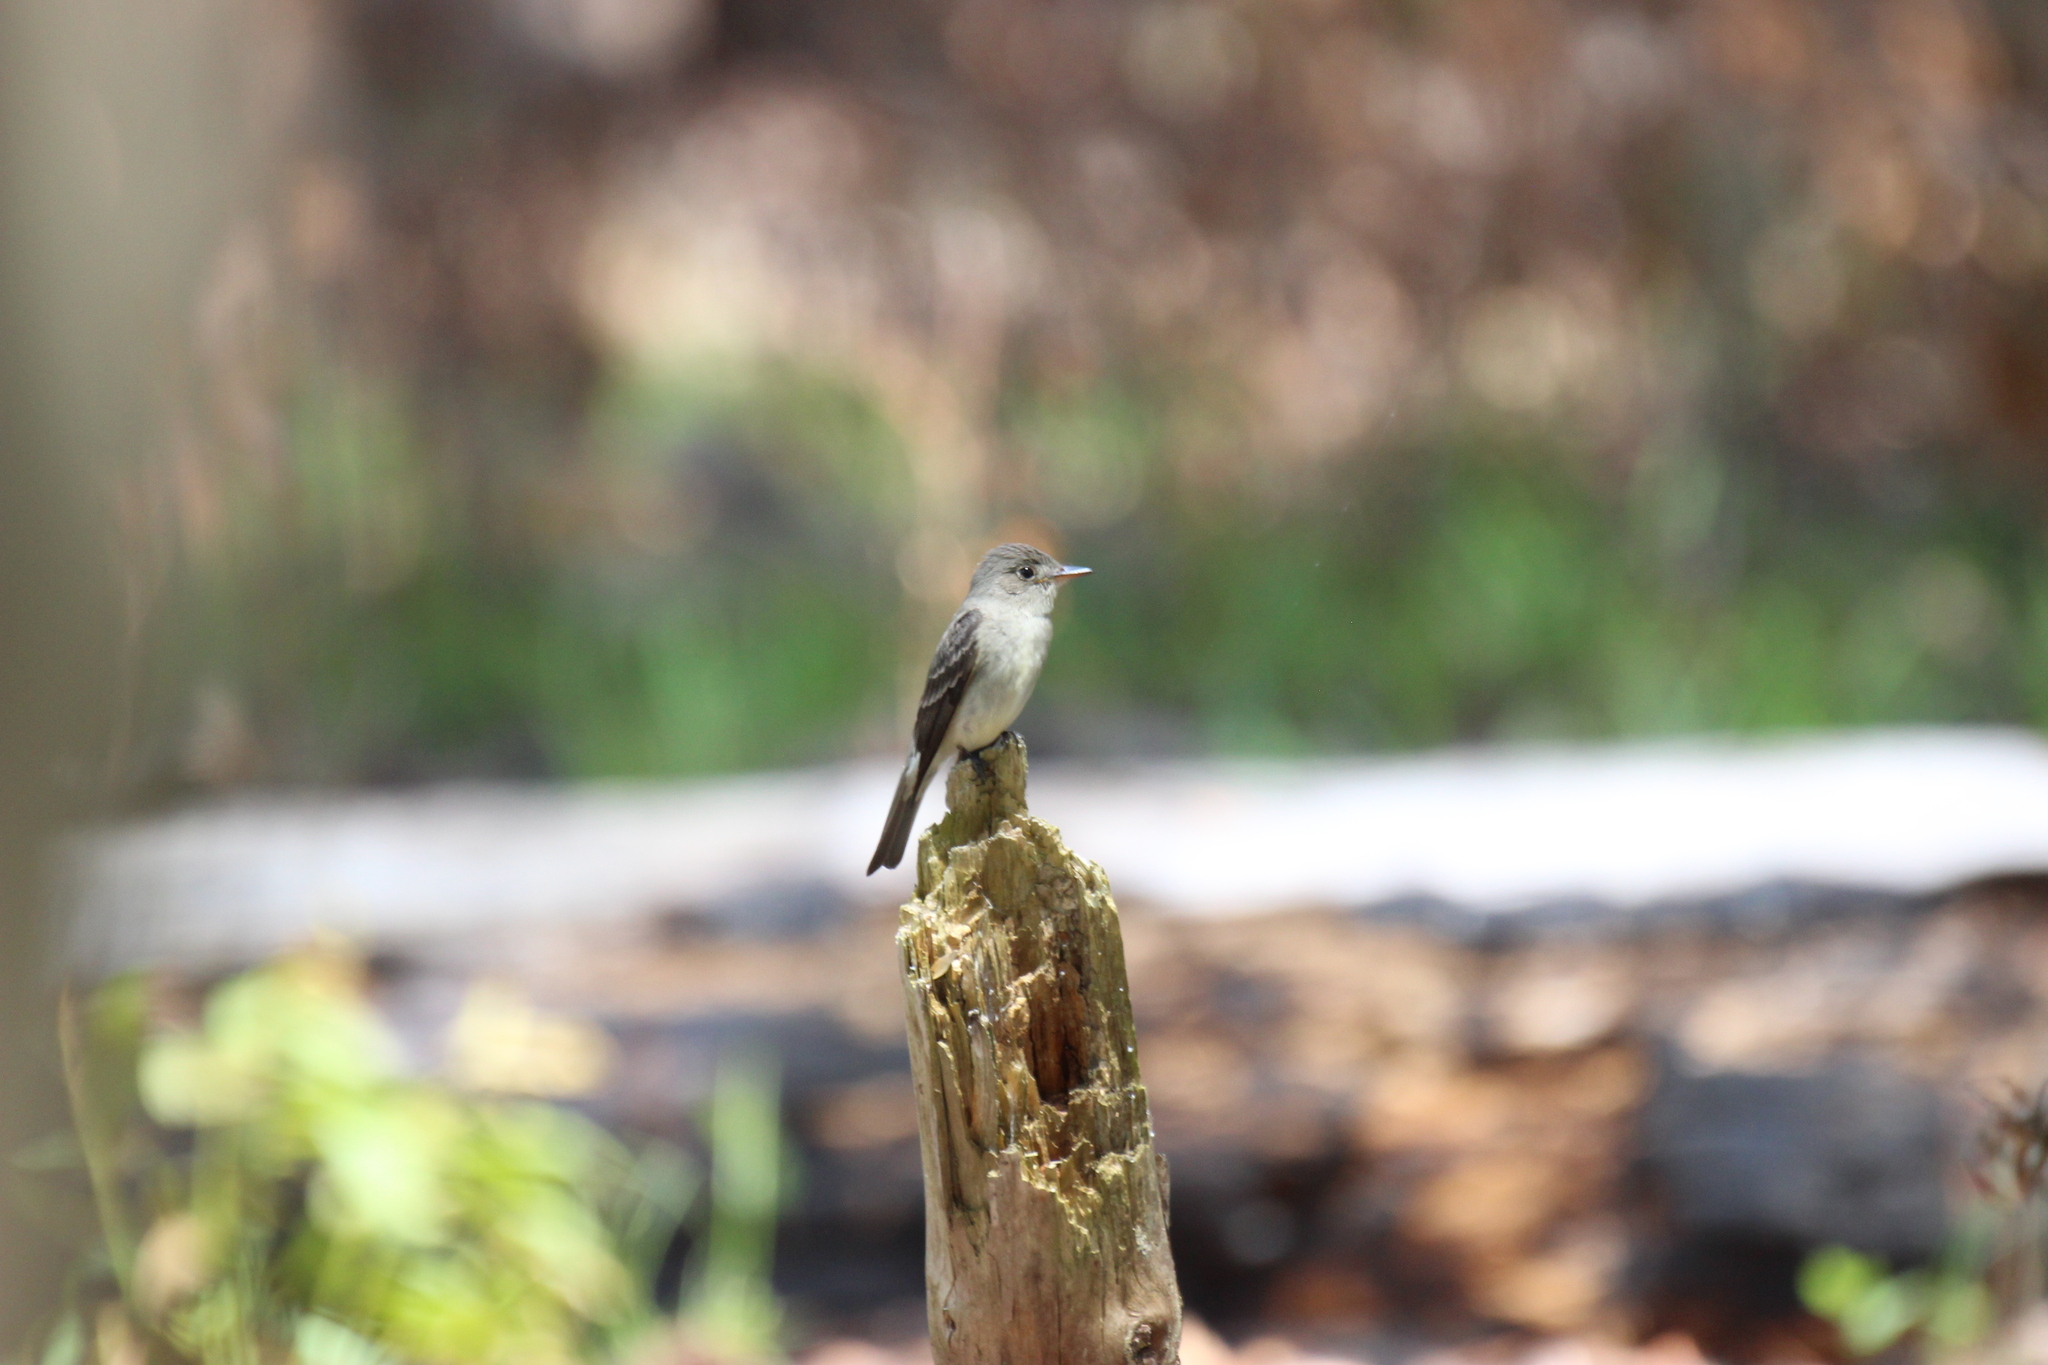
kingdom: Animalia
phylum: Chordata
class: Aves
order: Passeriformes
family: Tyrannidae
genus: Contopus
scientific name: Contopus virens
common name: Eastern wood-pewee
